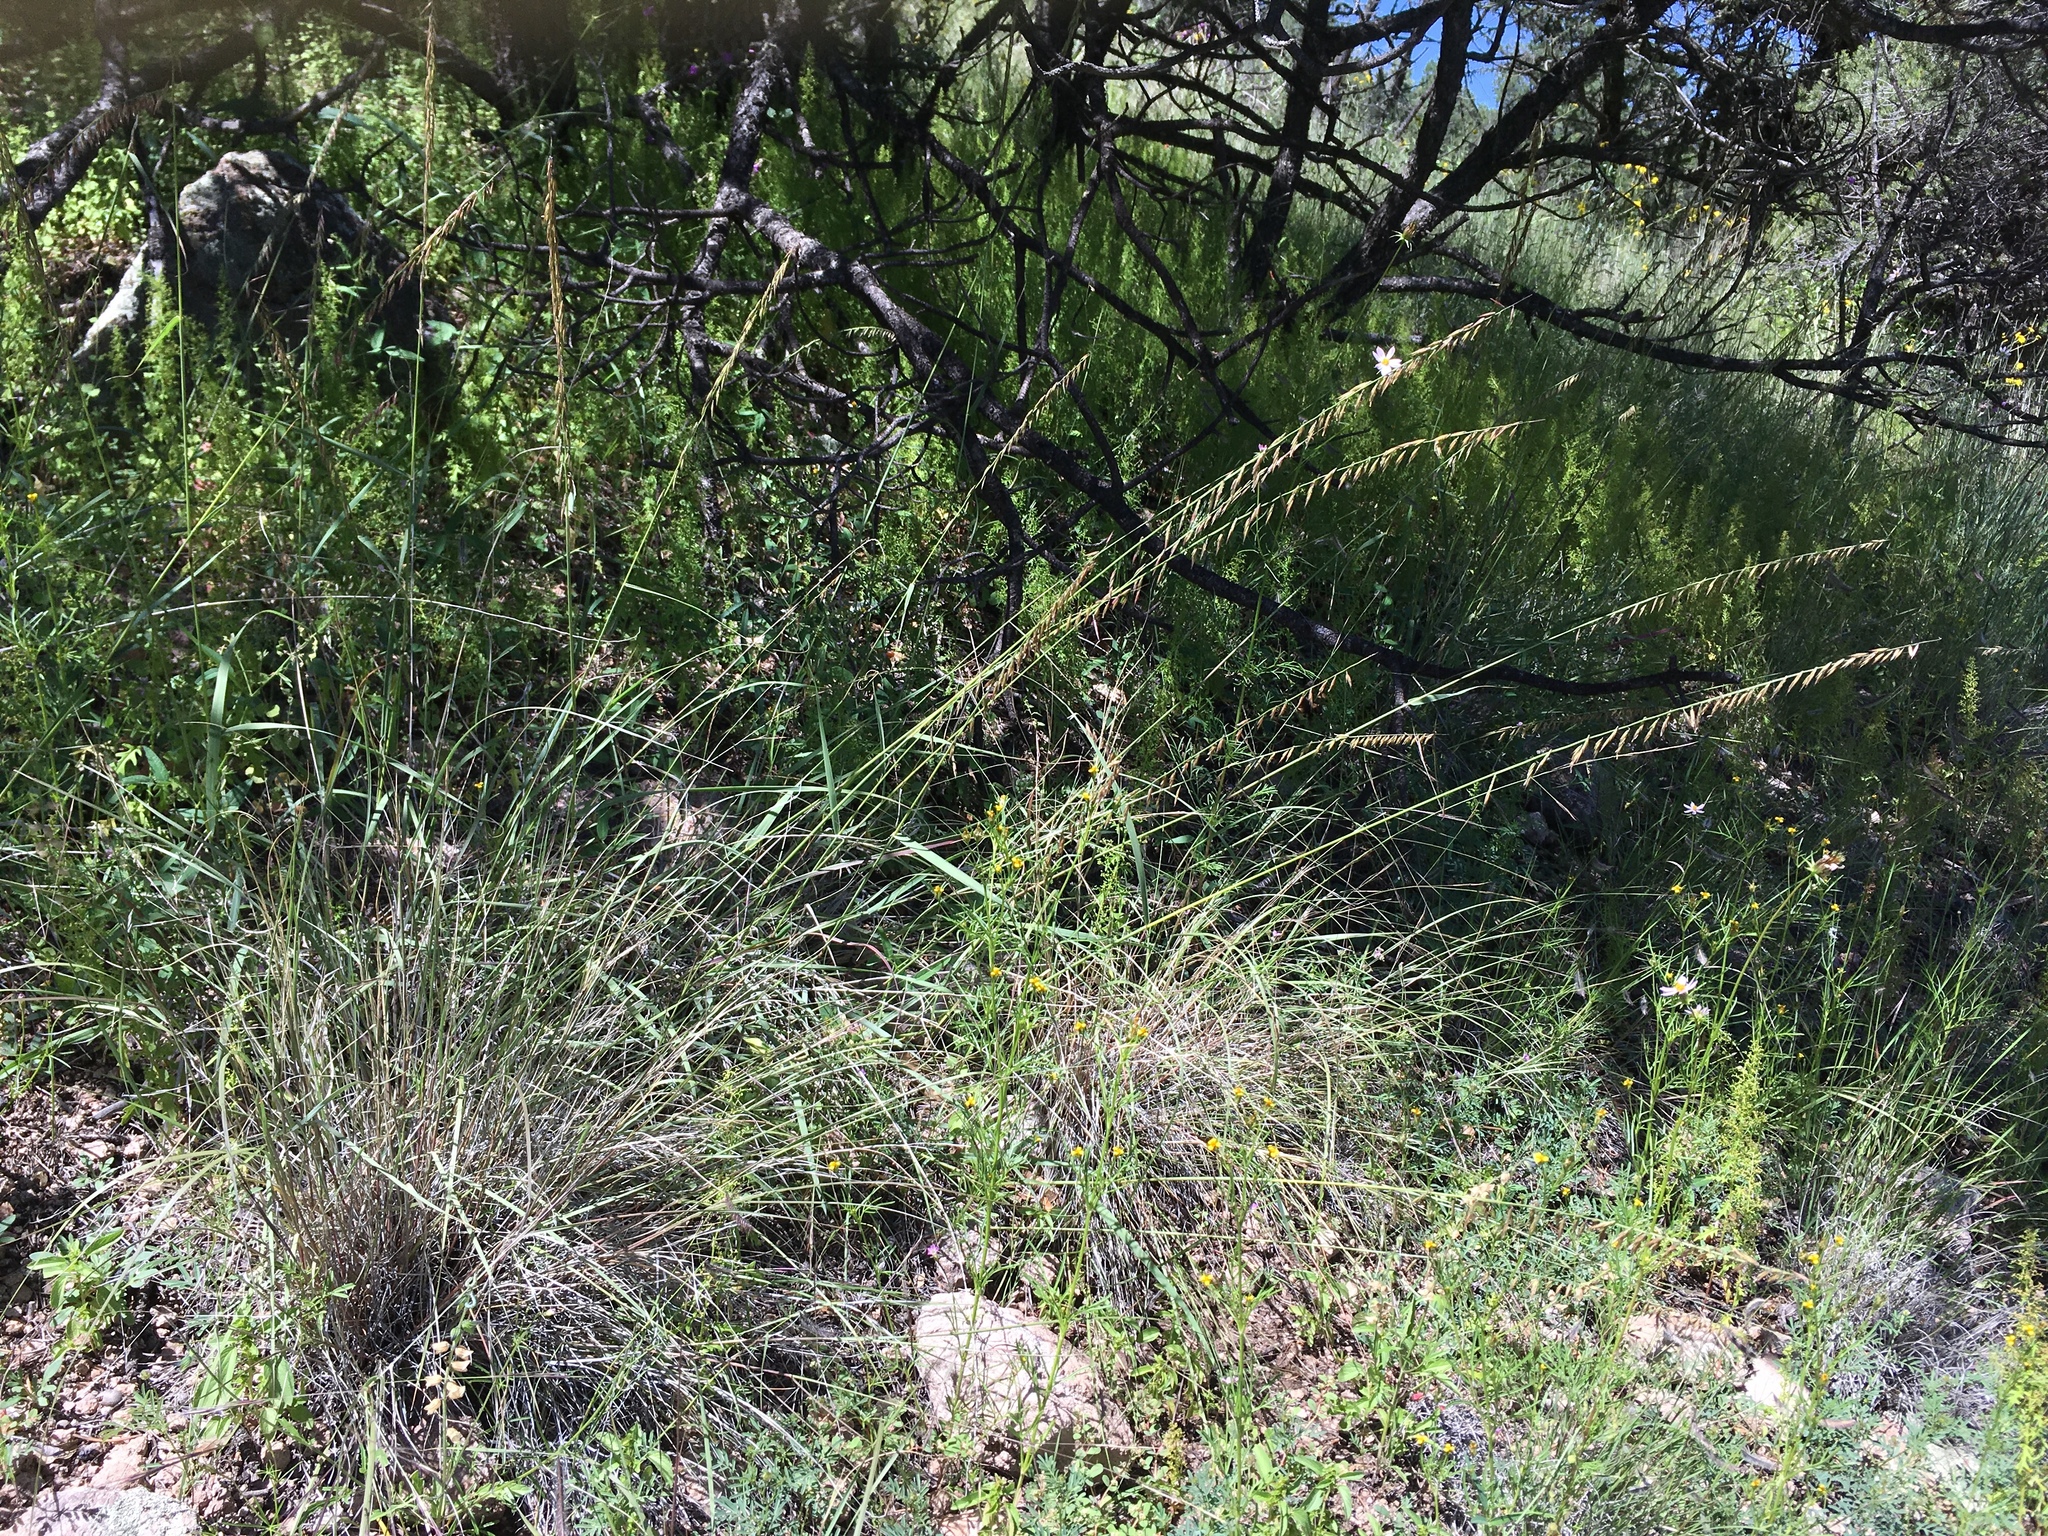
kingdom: Plantae
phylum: Tracheophyta
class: Liliopsida
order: Poales
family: Poaceae
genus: Bouteloua
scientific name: Bouteloua curtipendula
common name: Side-oats grama
